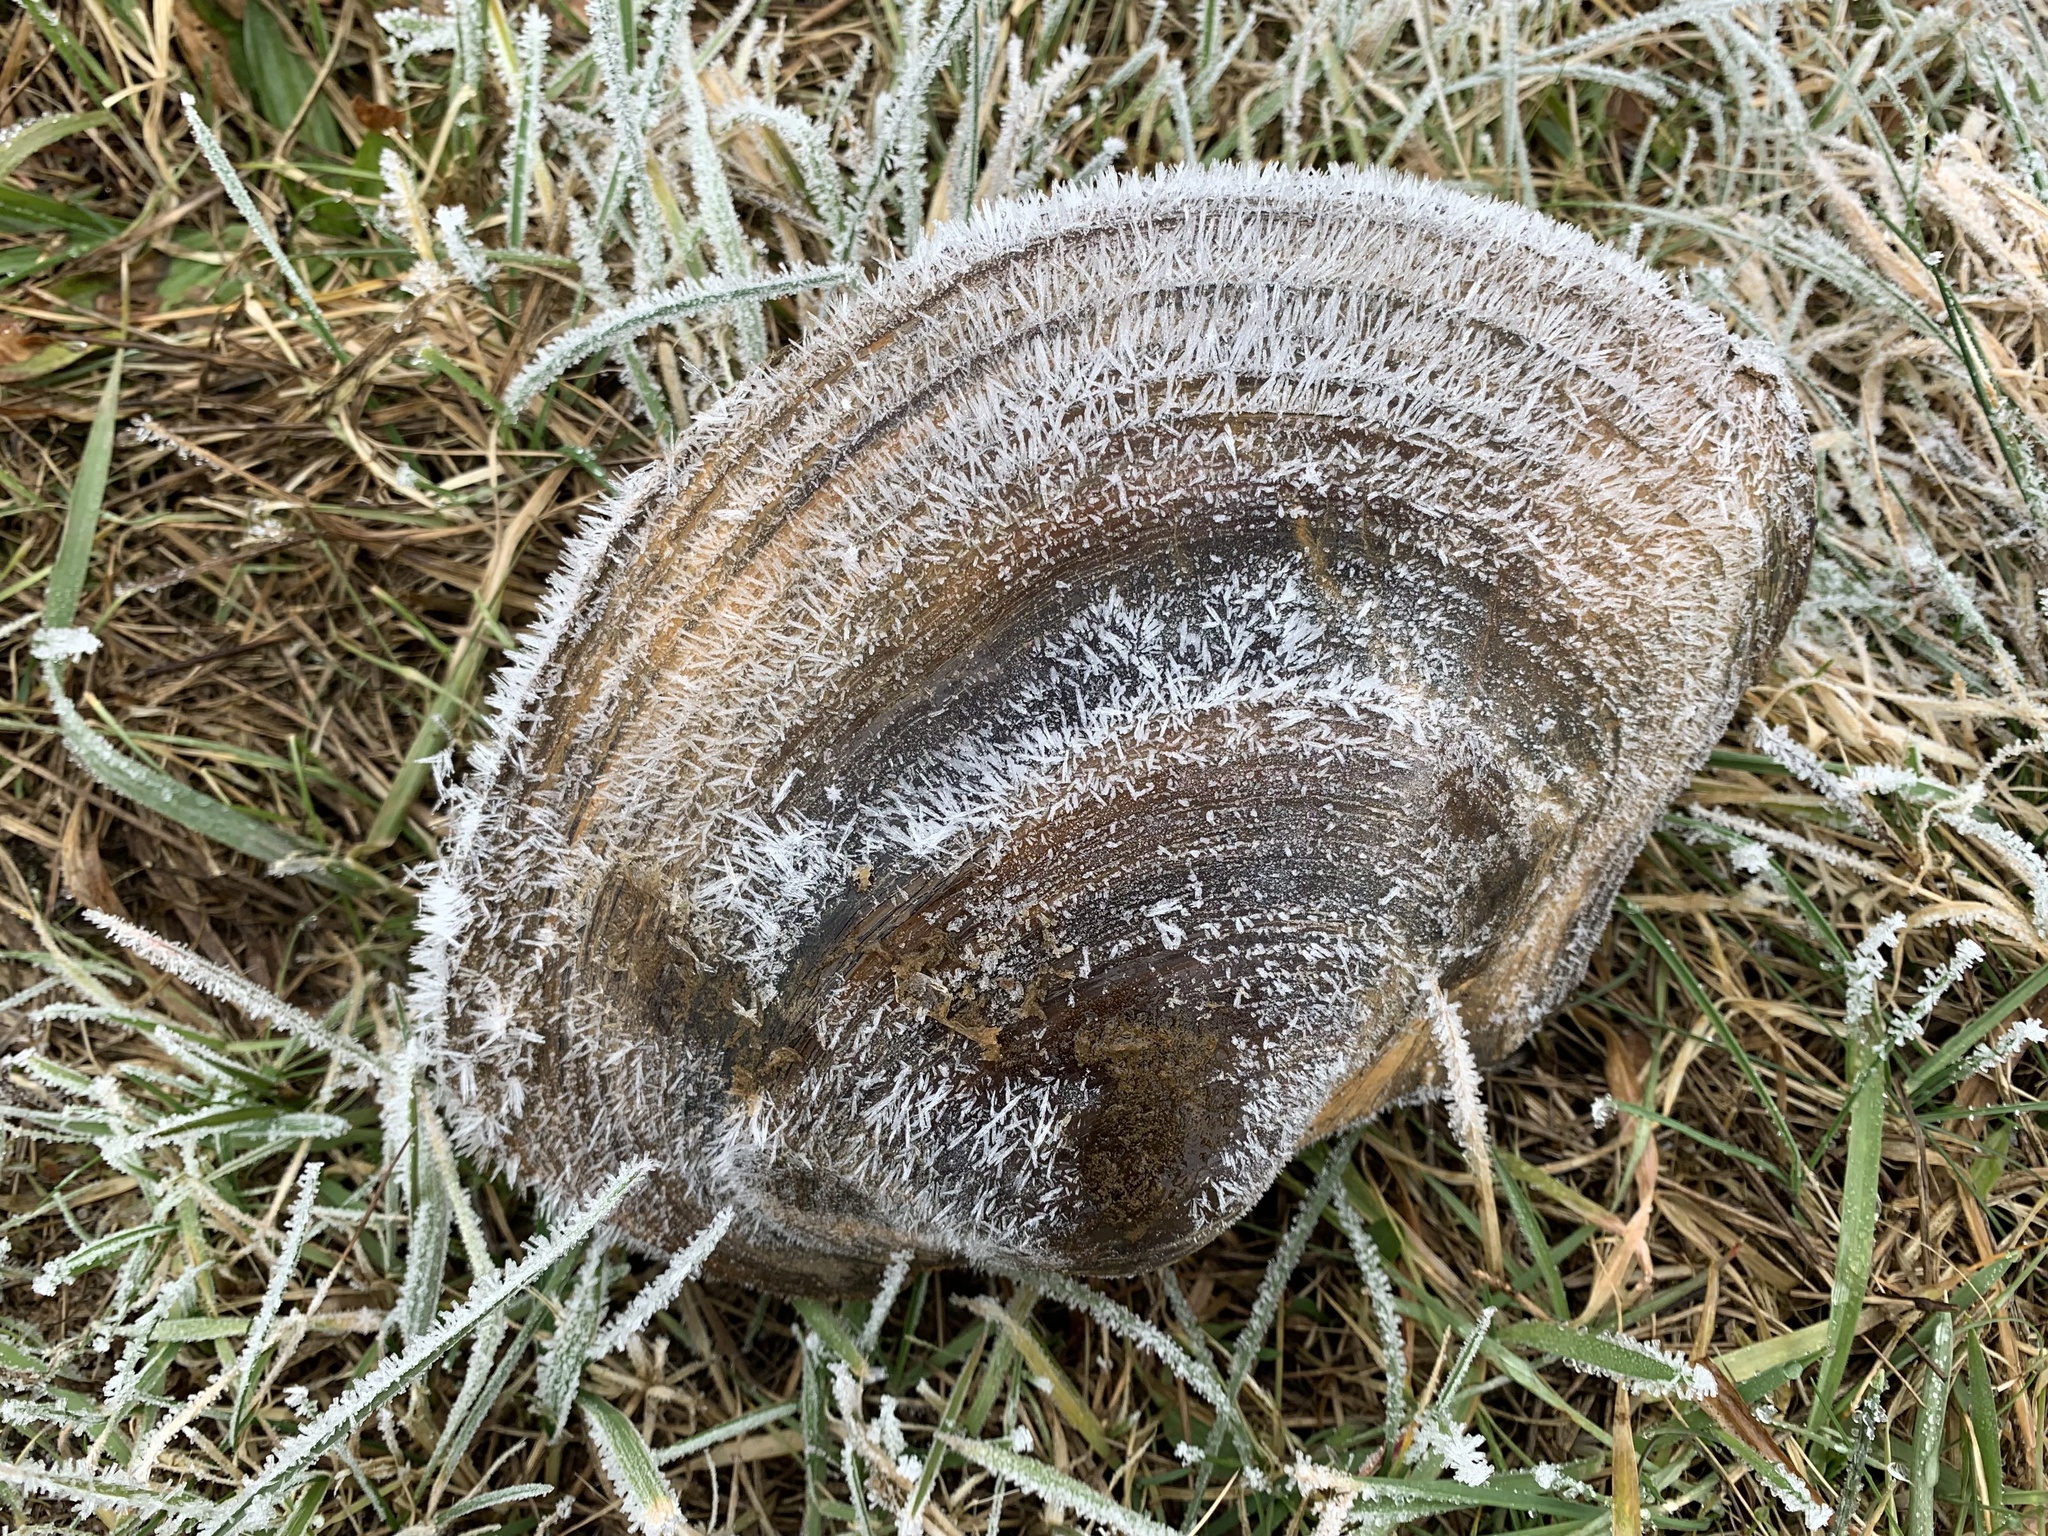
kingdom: Animalia
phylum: Mollusca
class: Bivalvia
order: Unionida
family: Unionidae
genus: Sinanodonta
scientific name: Sinanodonta woodiana
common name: Chinese pond mussel
